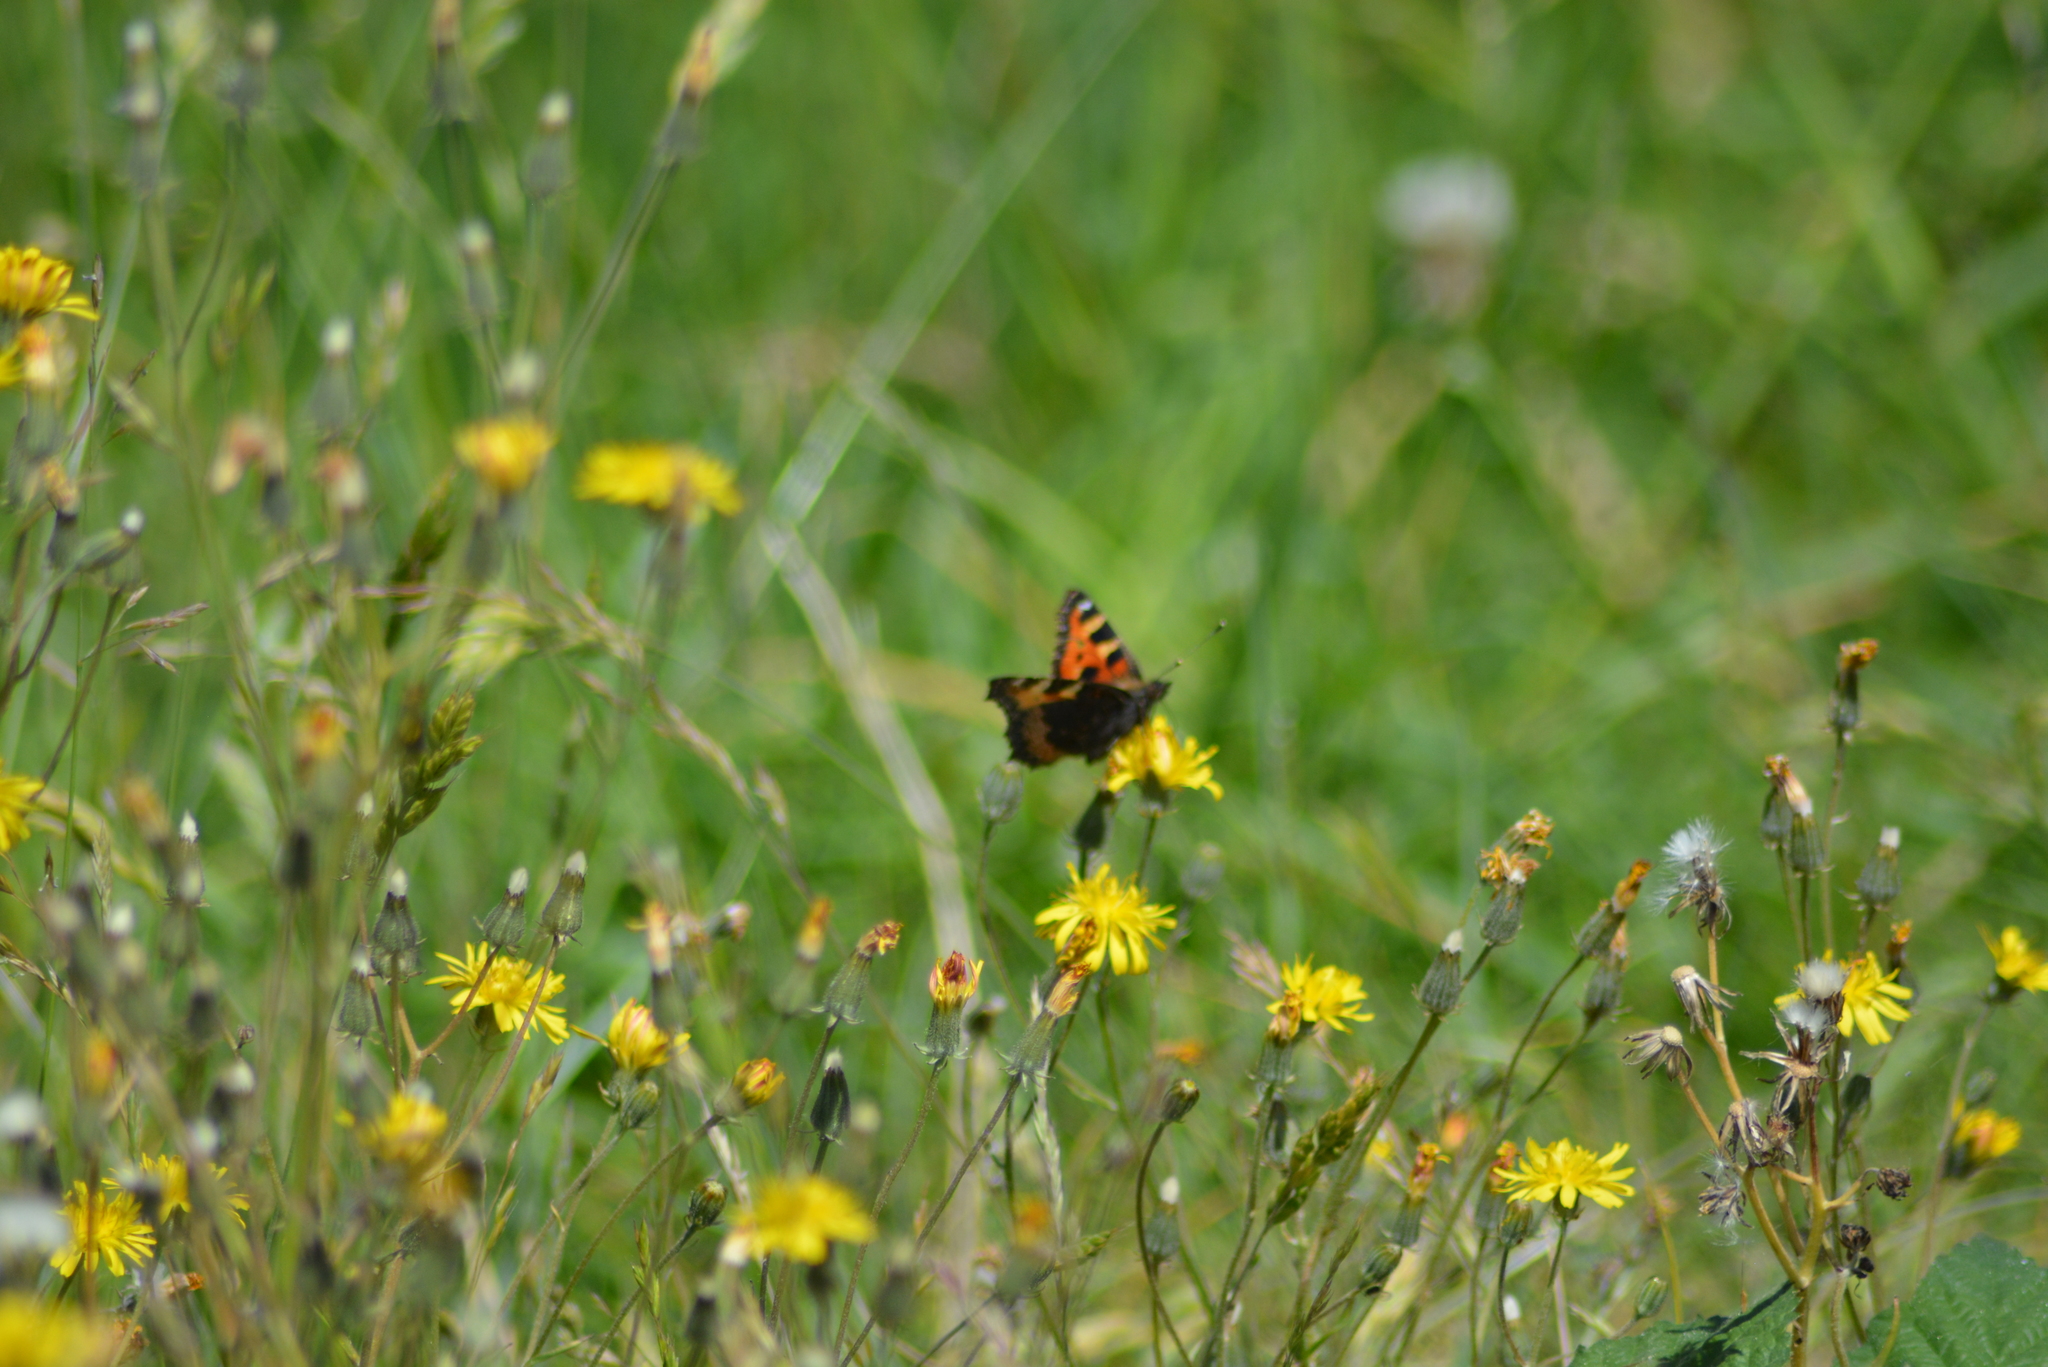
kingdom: Animalia
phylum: Arthropoda
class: Insecta
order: Lepidoptera
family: Nymphalidae
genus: Aglais
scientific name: Aglais urticae
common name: Small tortoiseshell
